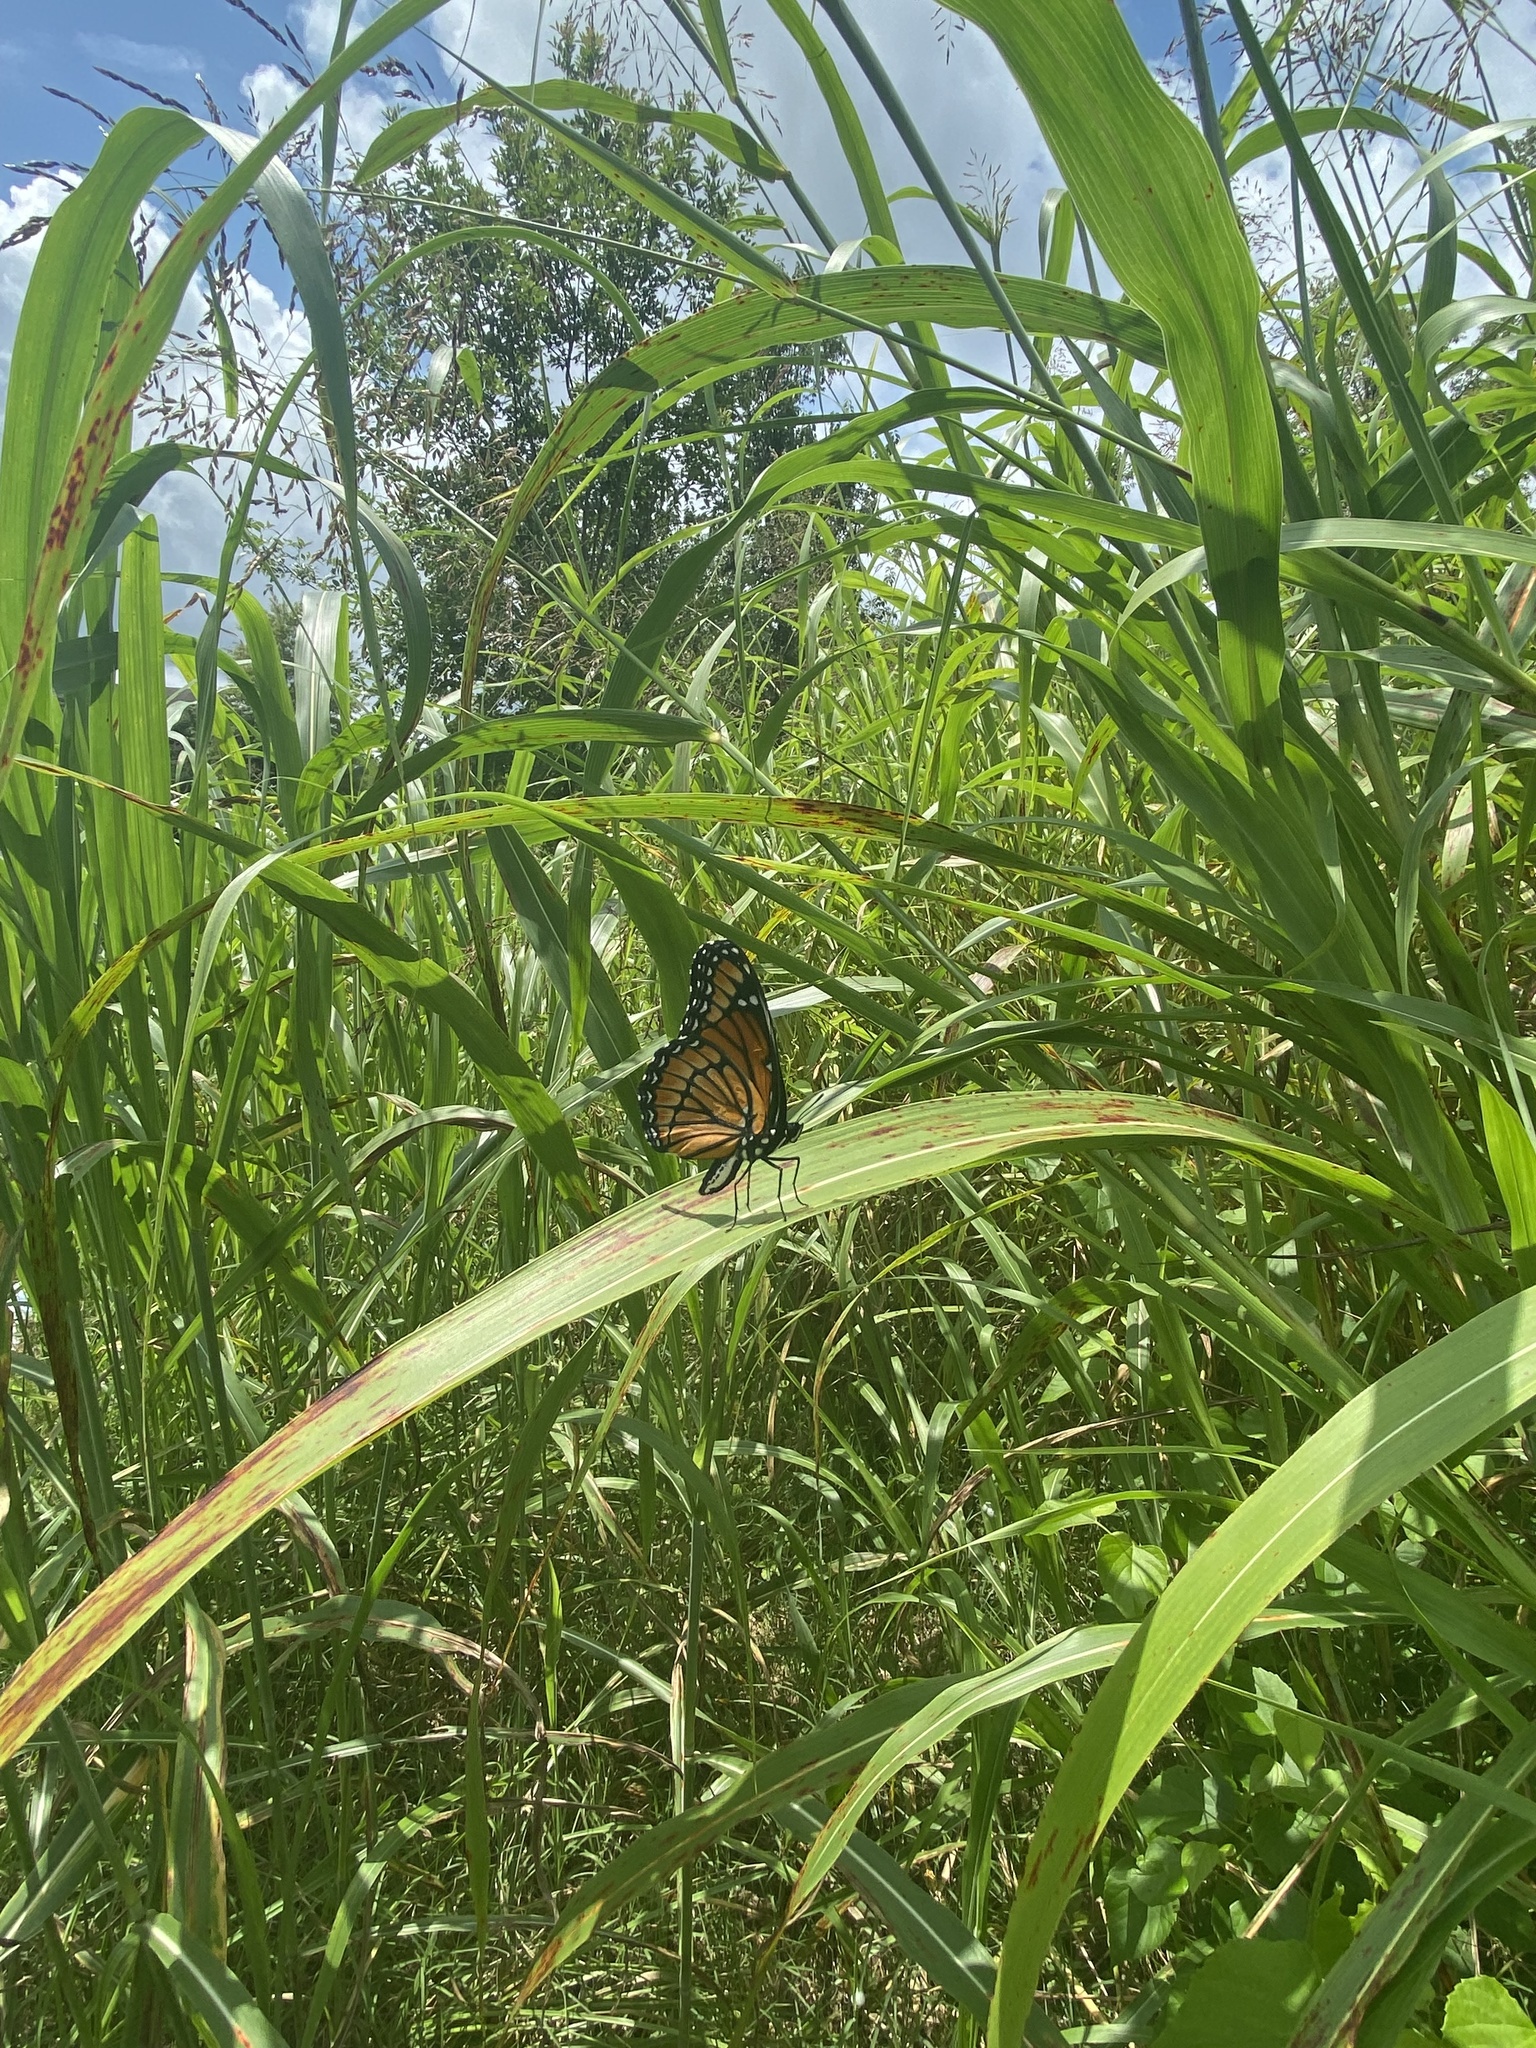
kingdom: Animalia
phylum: Arthropoda
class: Insecta
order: Lepidoptera
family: Nymphalidae
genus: Limenitis
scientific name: Limenitis archippus
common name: Viceroy
